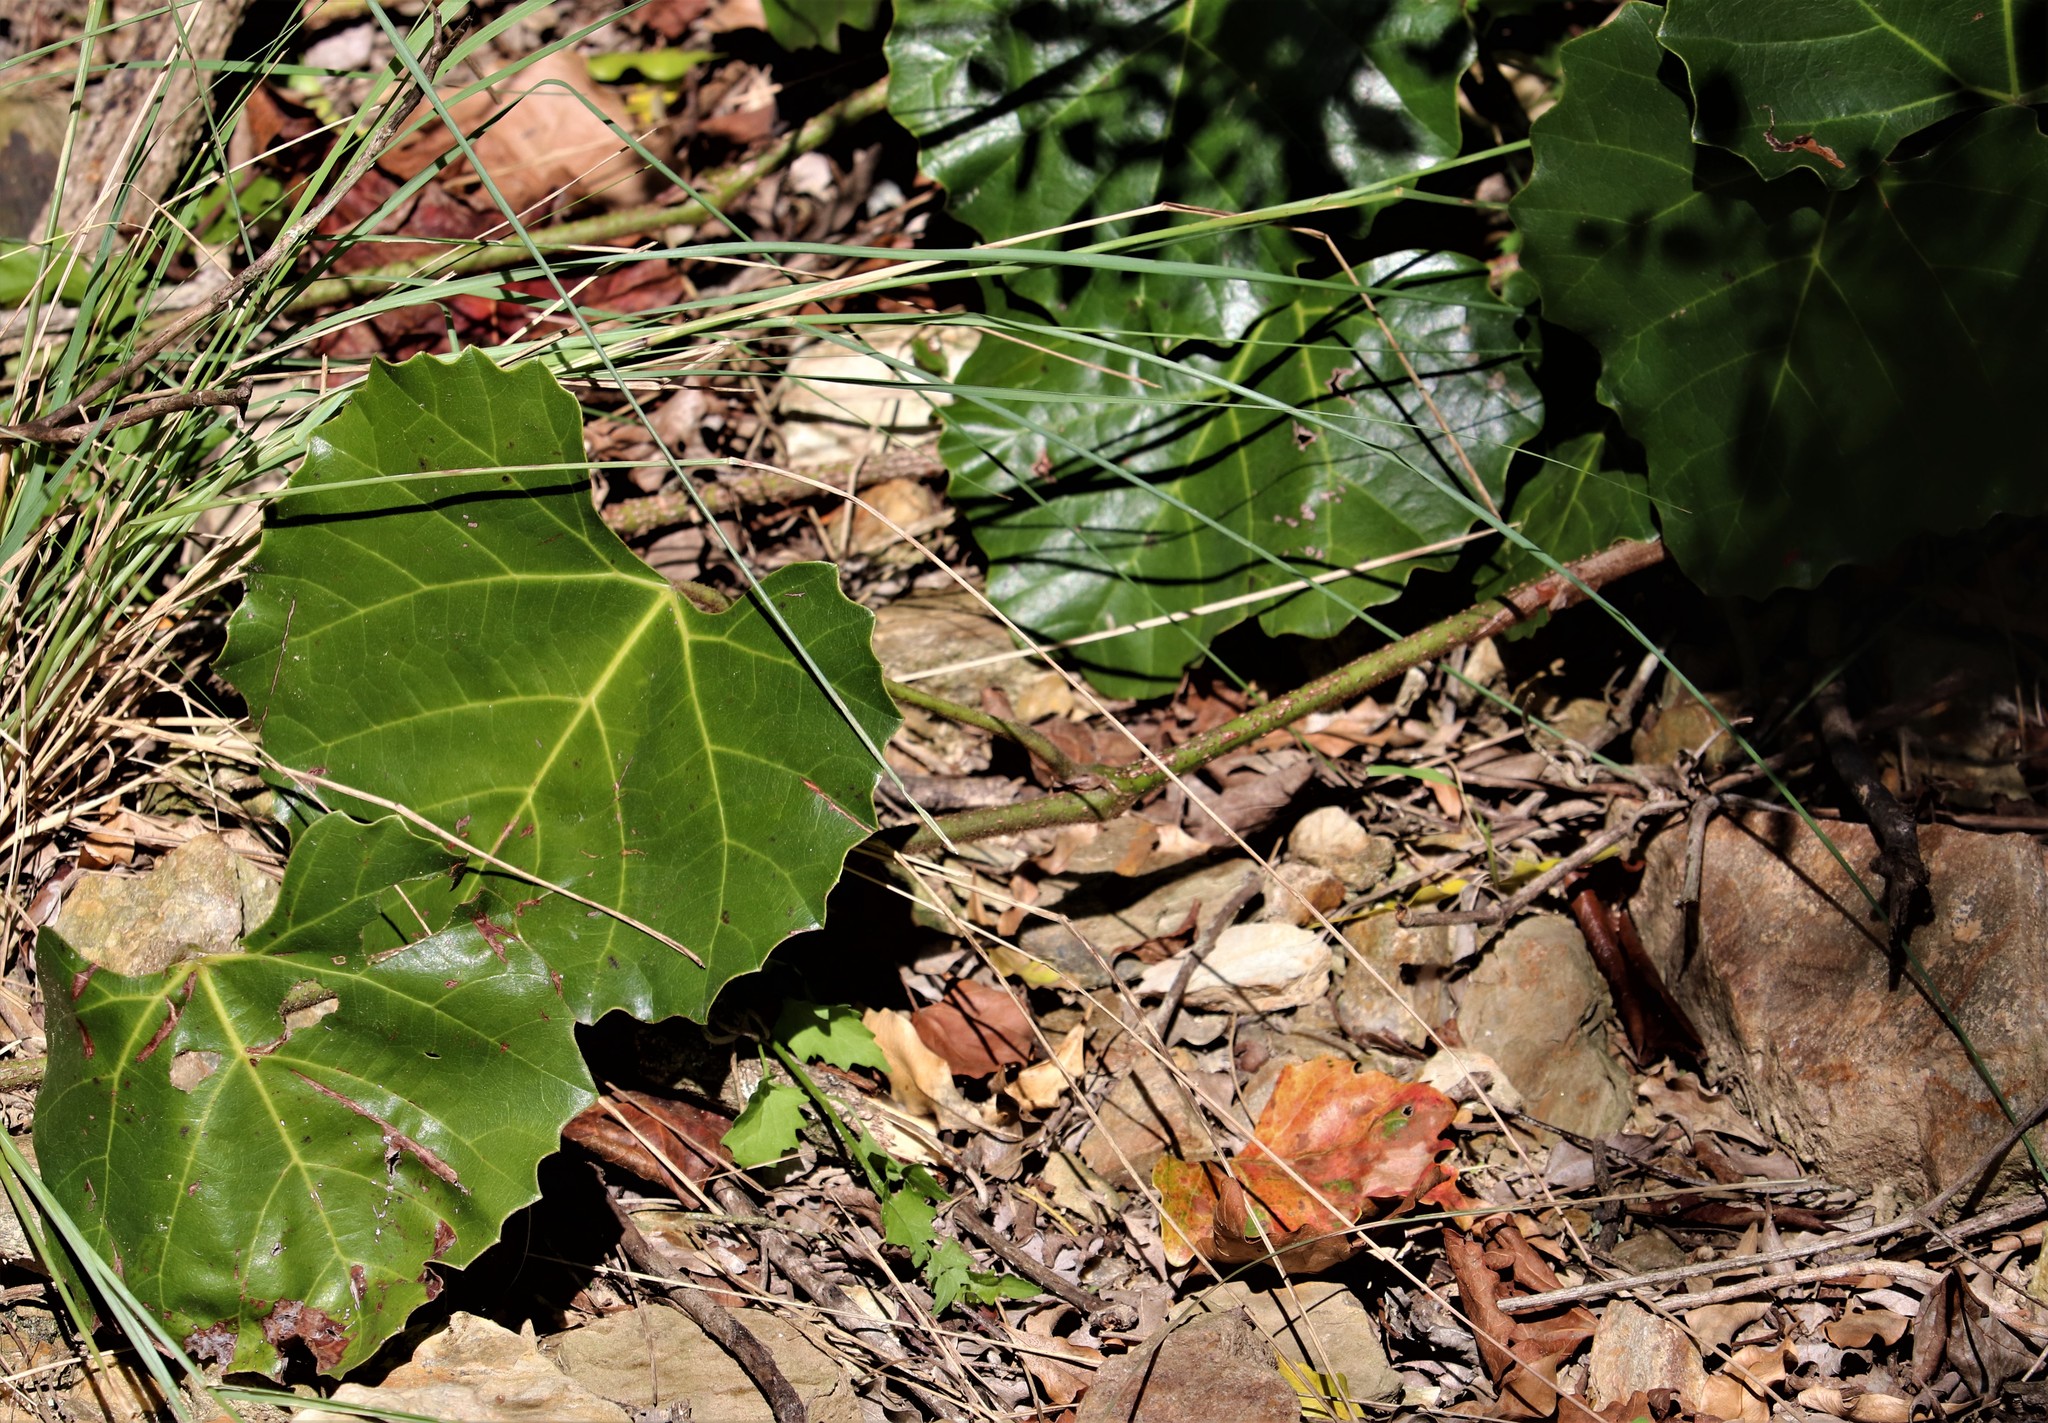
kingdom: Plantae
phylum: Tracheophyta
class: Magnoliopsida
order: Vitales
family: Vitaceae
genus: Rhoicissus
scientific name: Rhoicissus tomentosa
